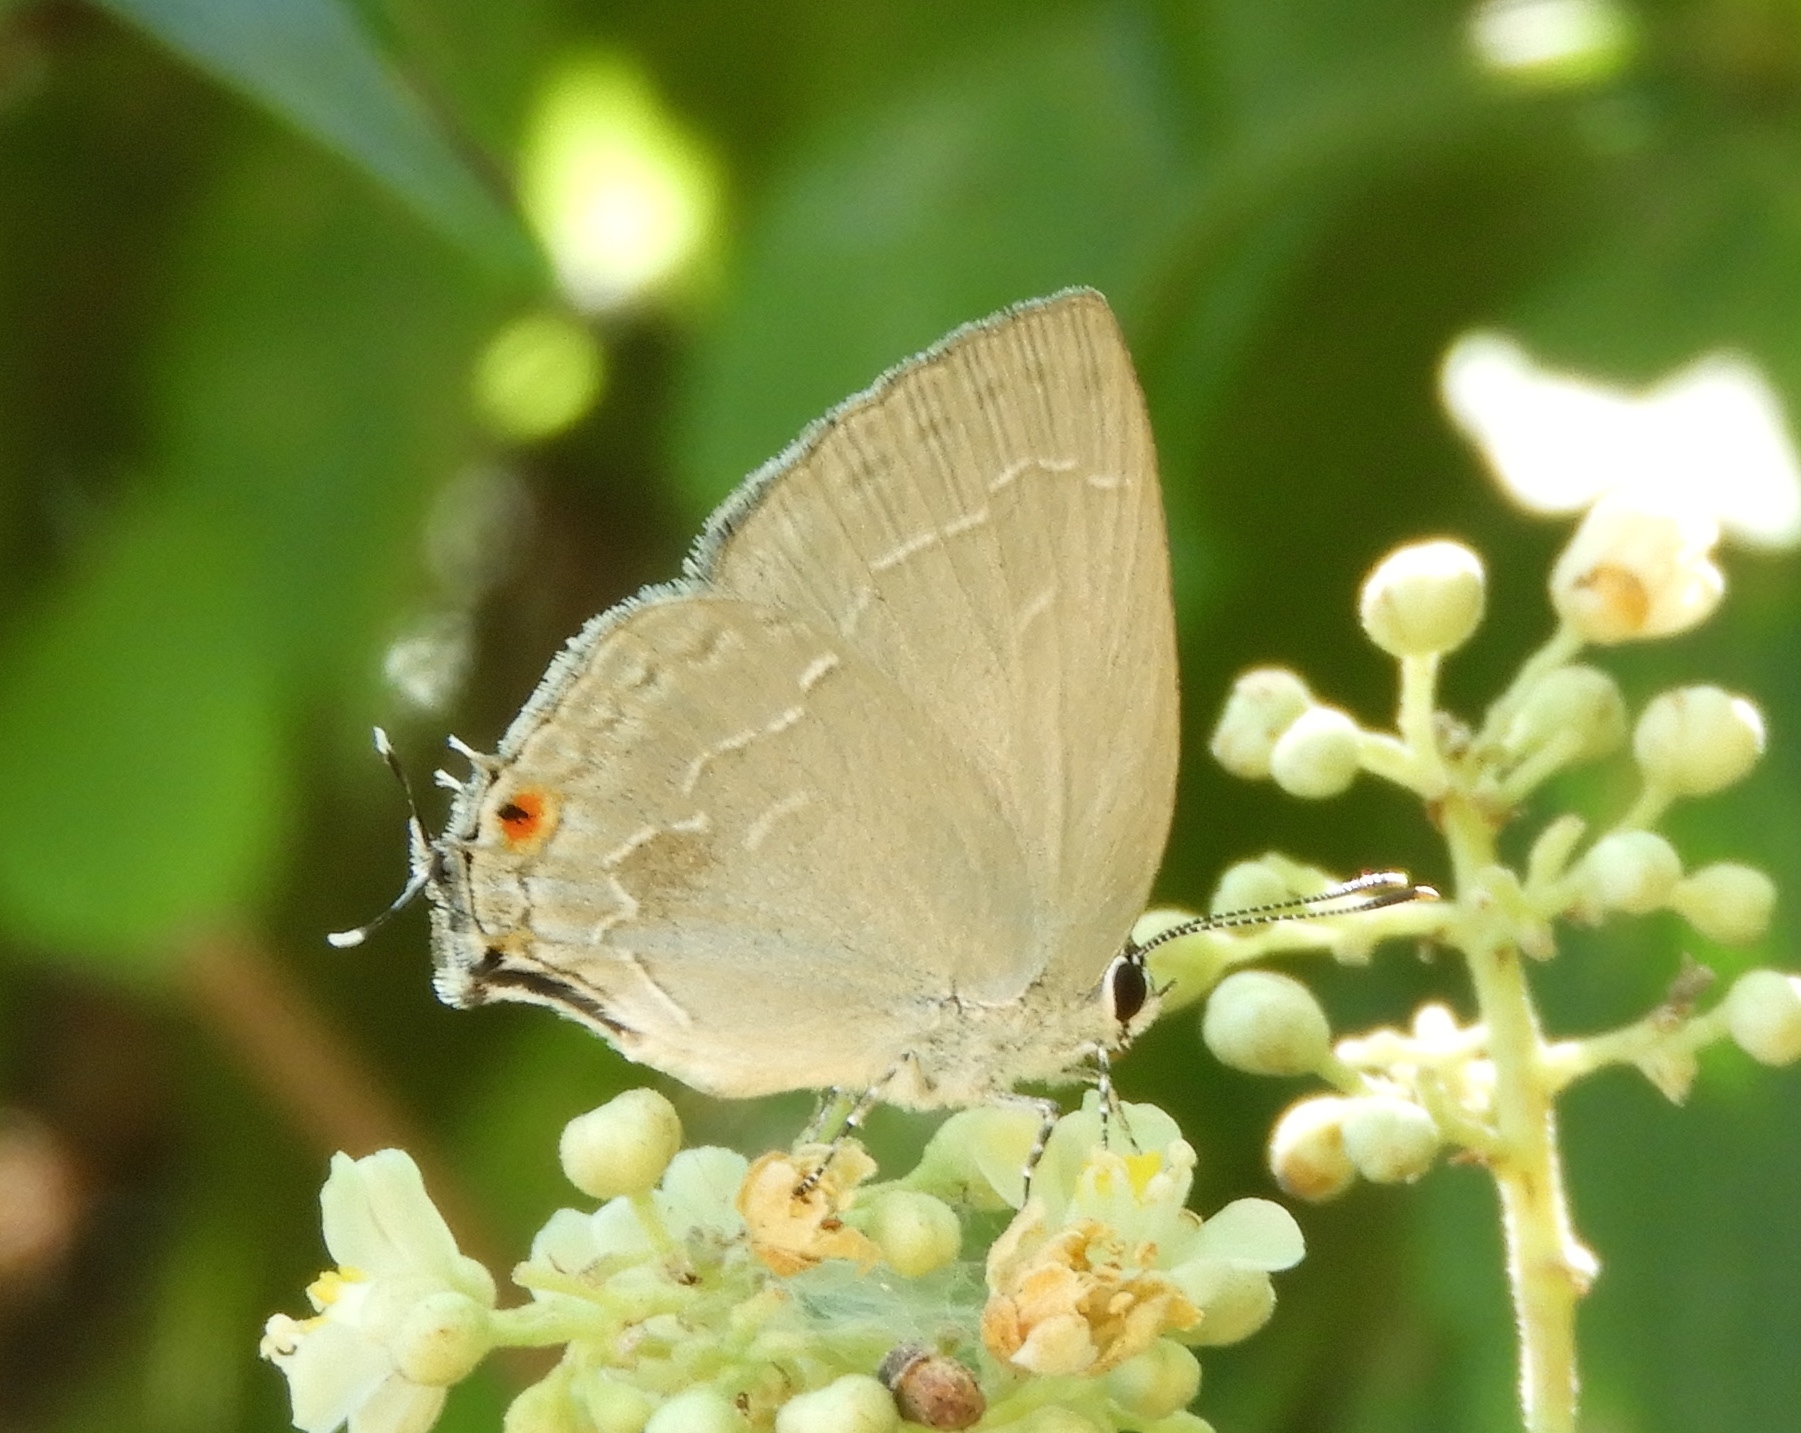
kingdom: Animalia
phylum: Arthropoda
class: Insecta
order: Lepidoptera
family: Lycaenidae
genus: Strephonota
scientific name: Strephonota tephraeus
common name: Pearly-gray hairstreak
